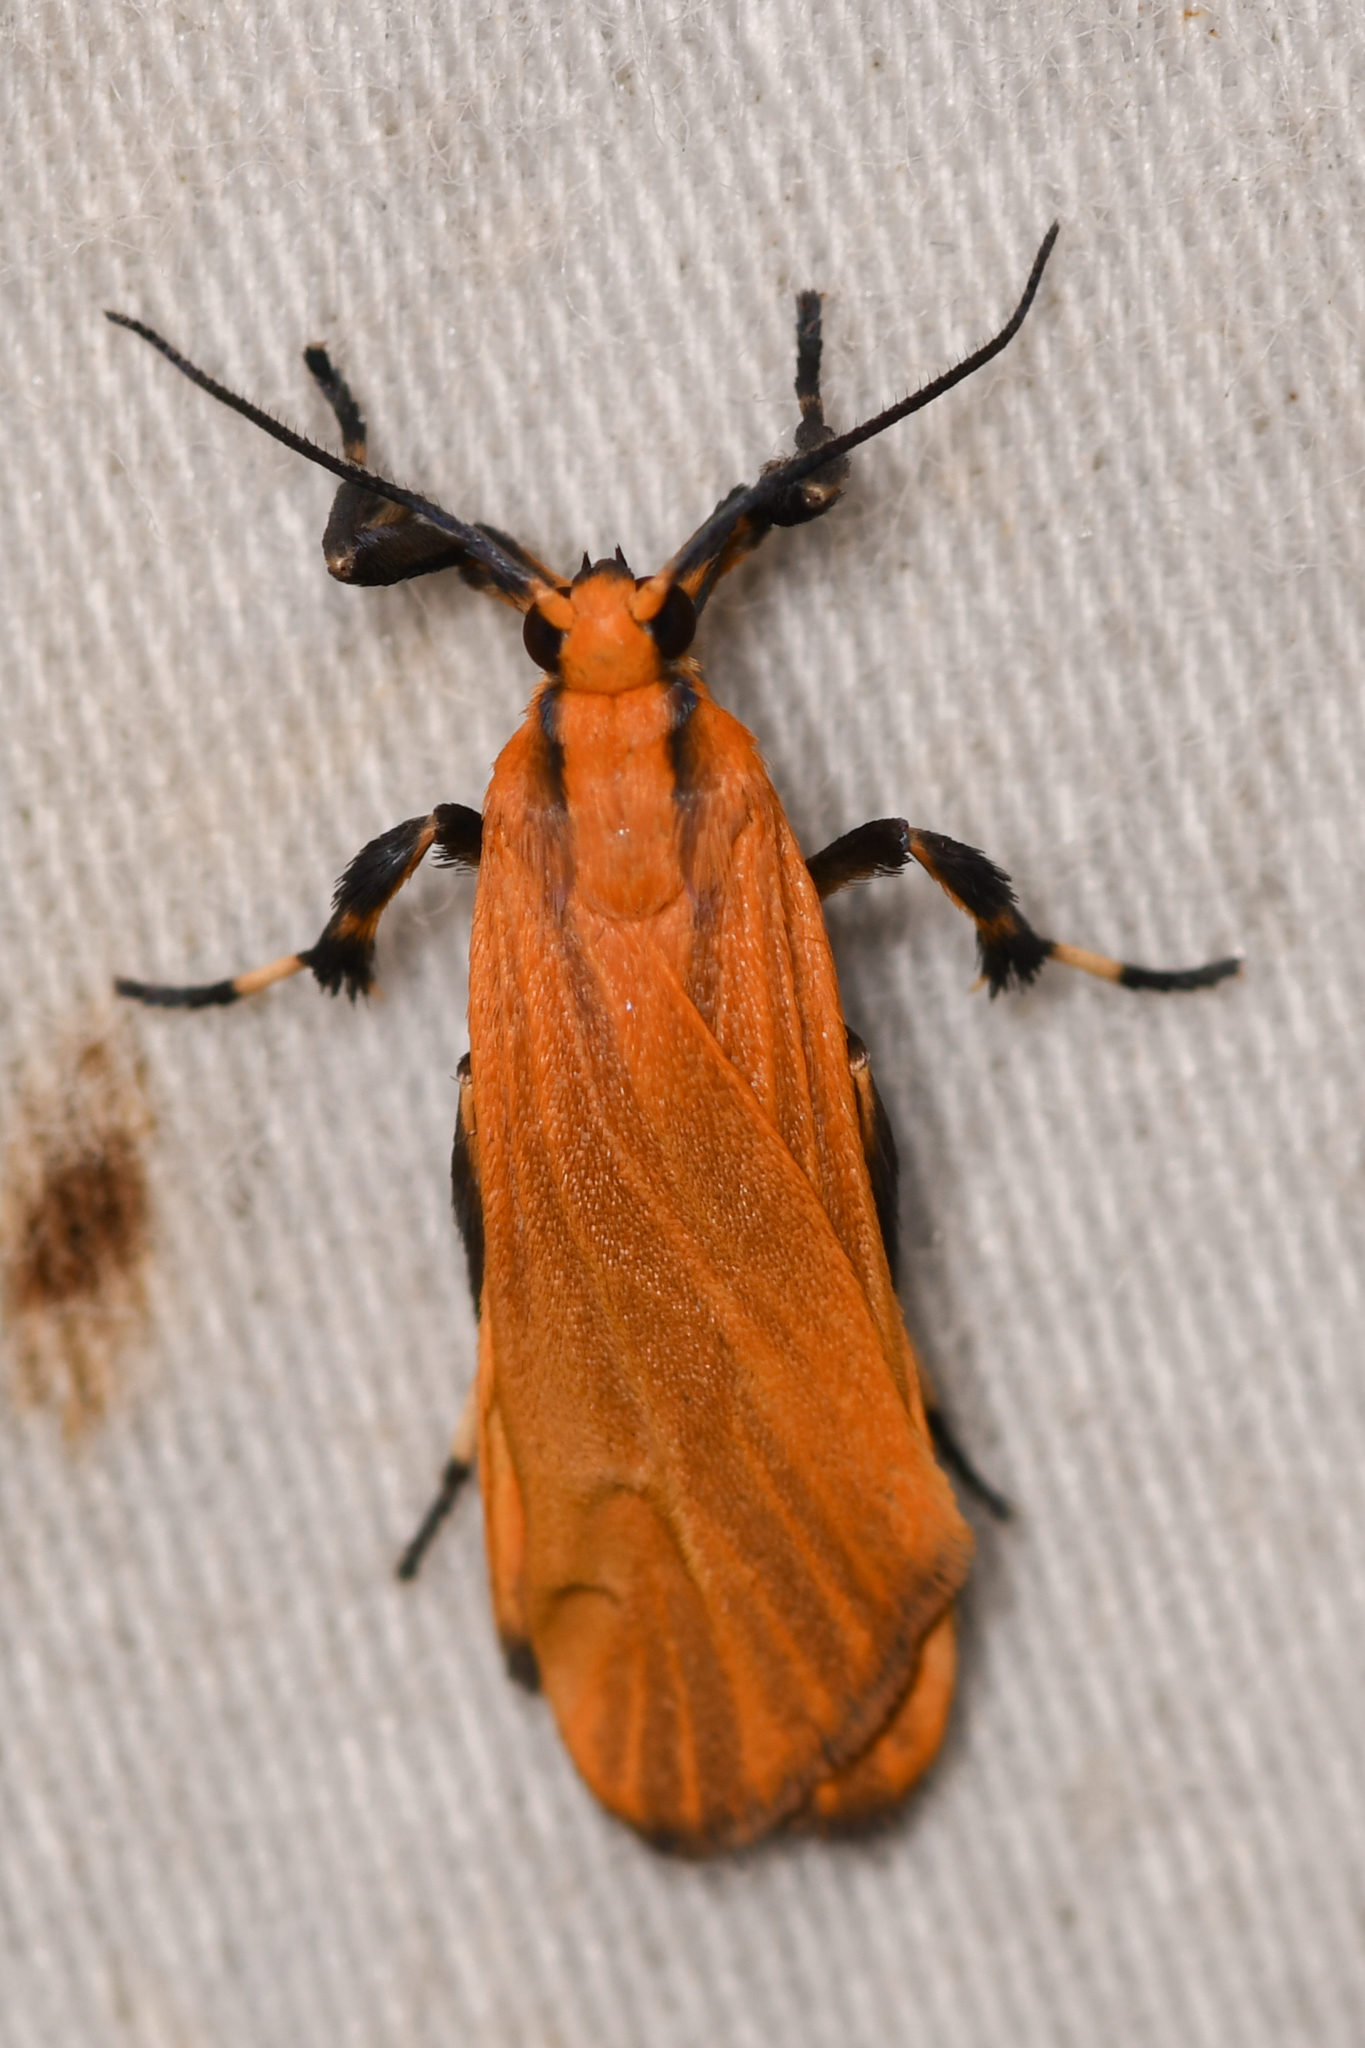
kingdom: Animalia
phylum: Arthropoda
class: Insecta
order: Lepidoptera
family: Erebidae
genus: Lycomorphodes
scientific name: Lycomorphodes sordida
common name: Lichen moth
